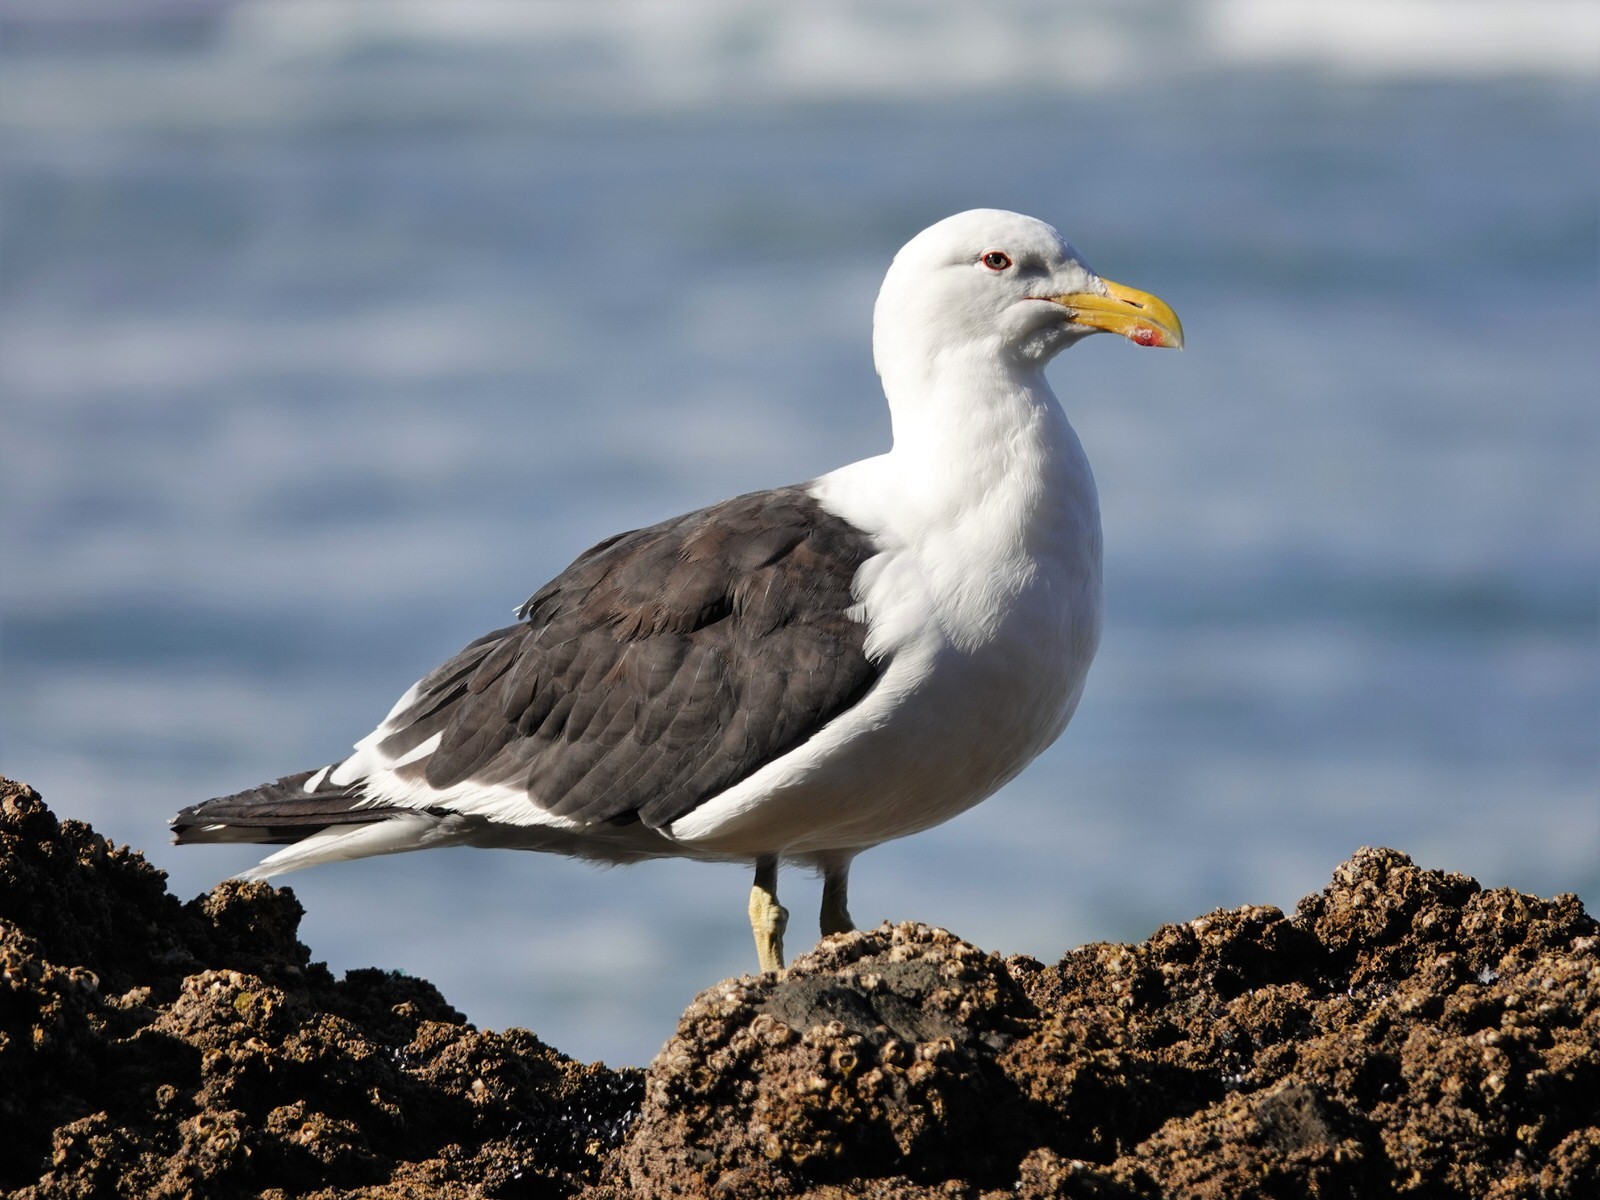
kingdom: Animalia
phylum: Chordata
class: Aves
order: Charadriiformes
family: Laridae
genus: Larus
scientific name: Larus dominicanus
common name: Kelp gull
